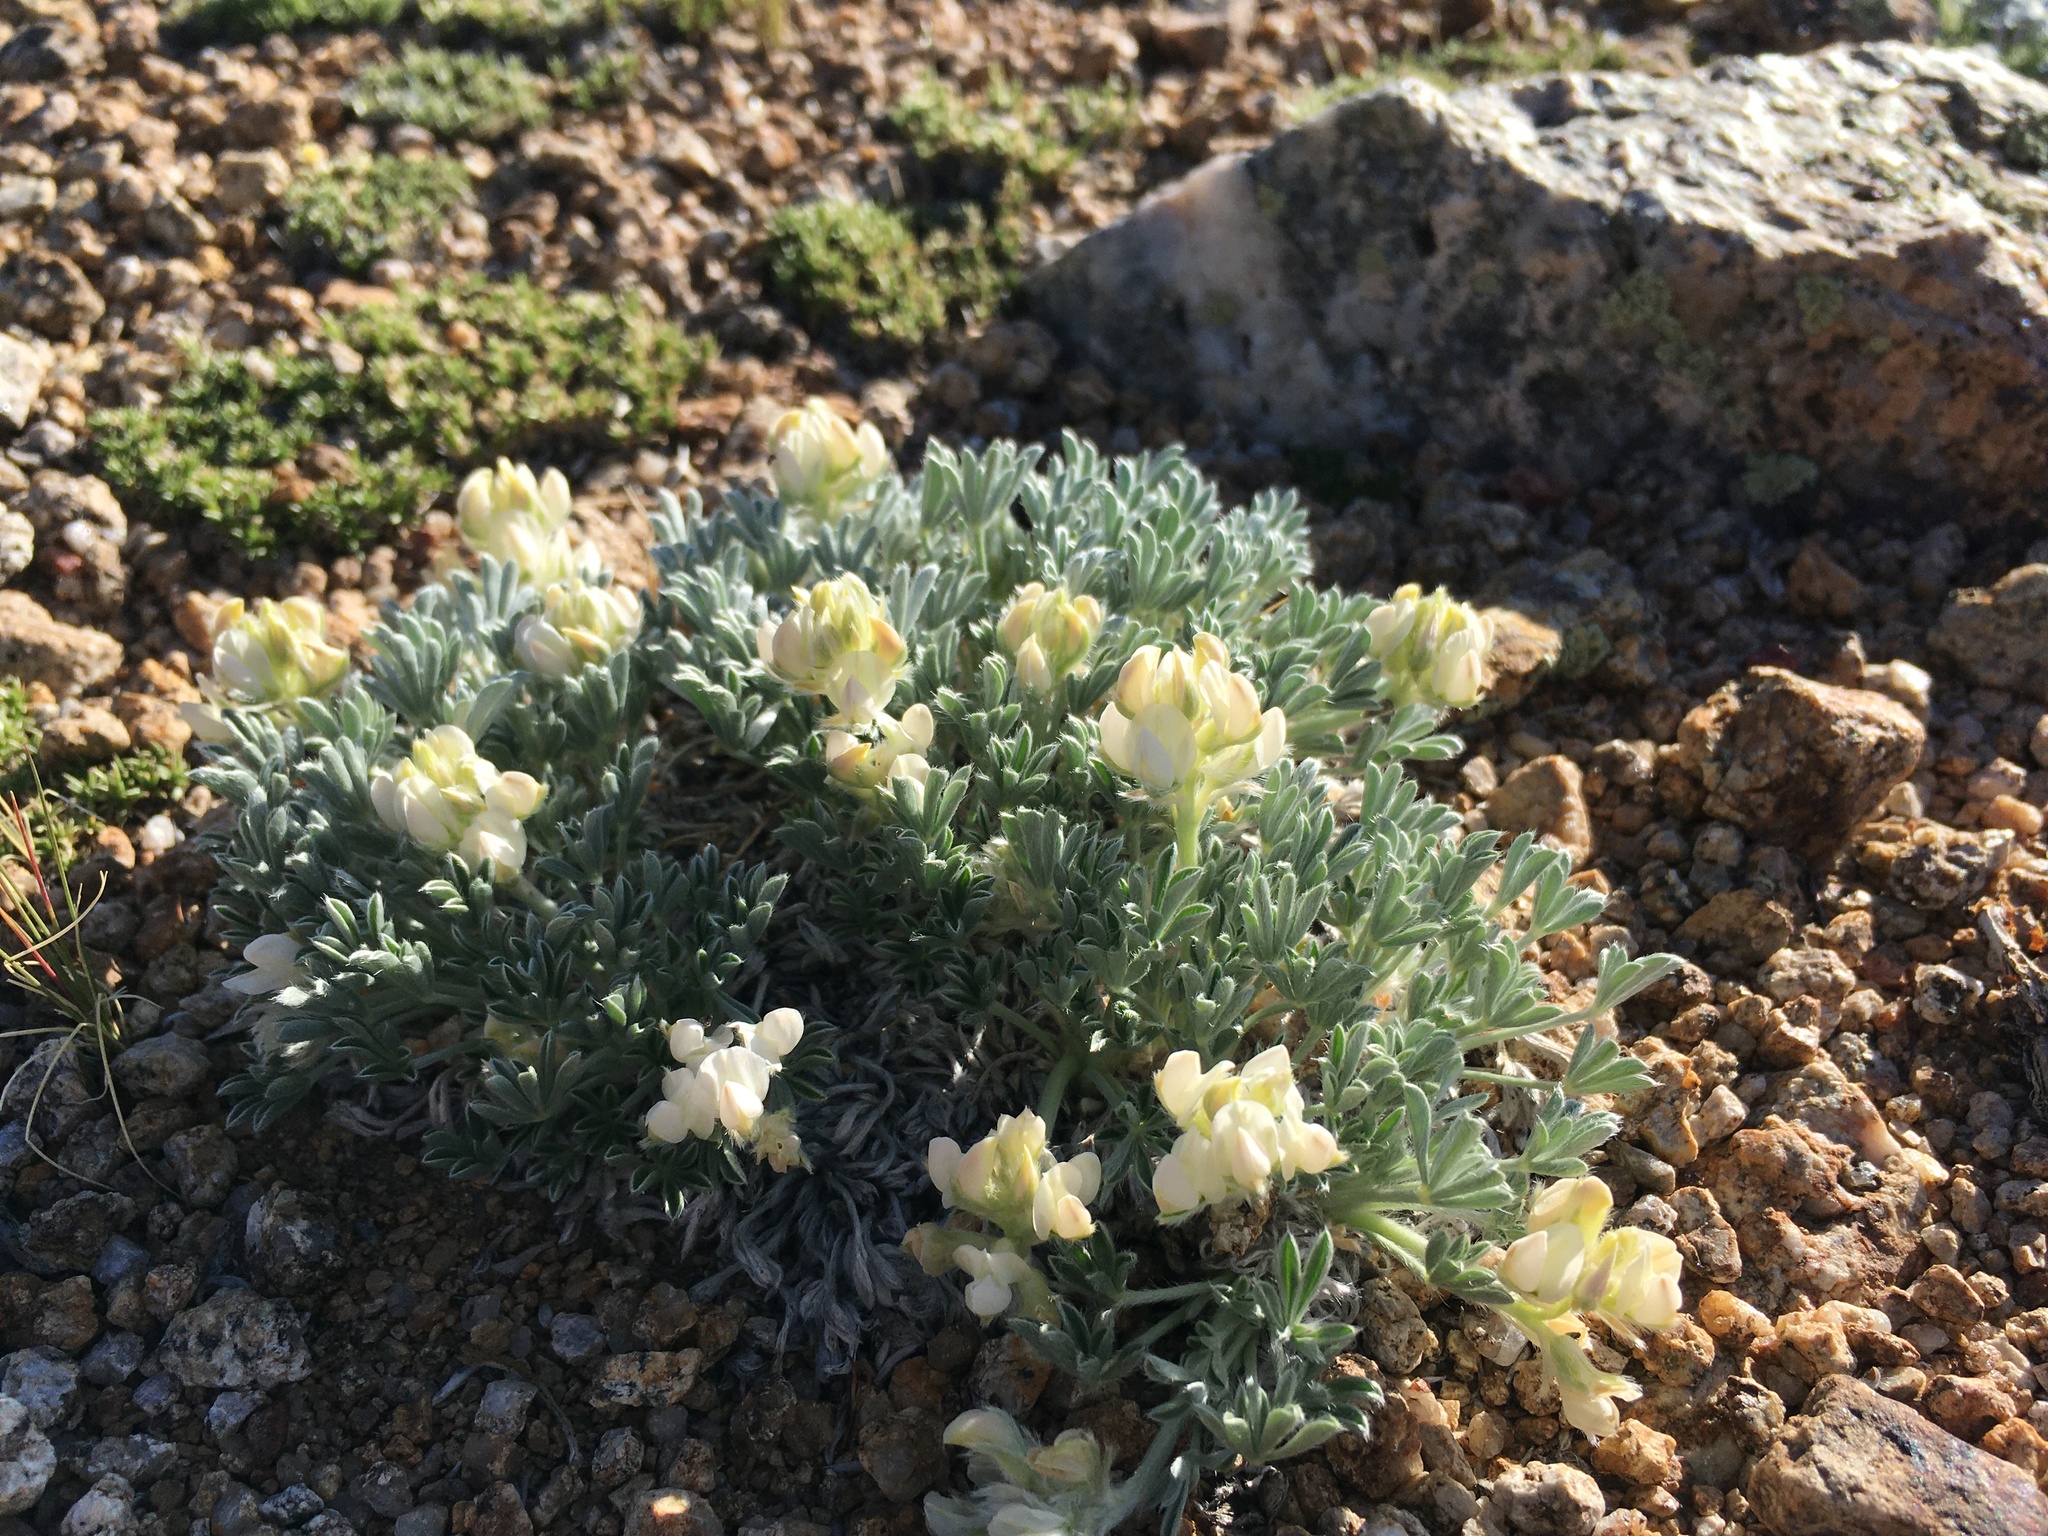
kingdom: Plantae
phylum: Tracheophyta
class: Magnoliopsida
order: Fabales
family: Fabaceae
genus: Lupinus
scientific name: Lupinus breweri
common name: Brewer's lupine
